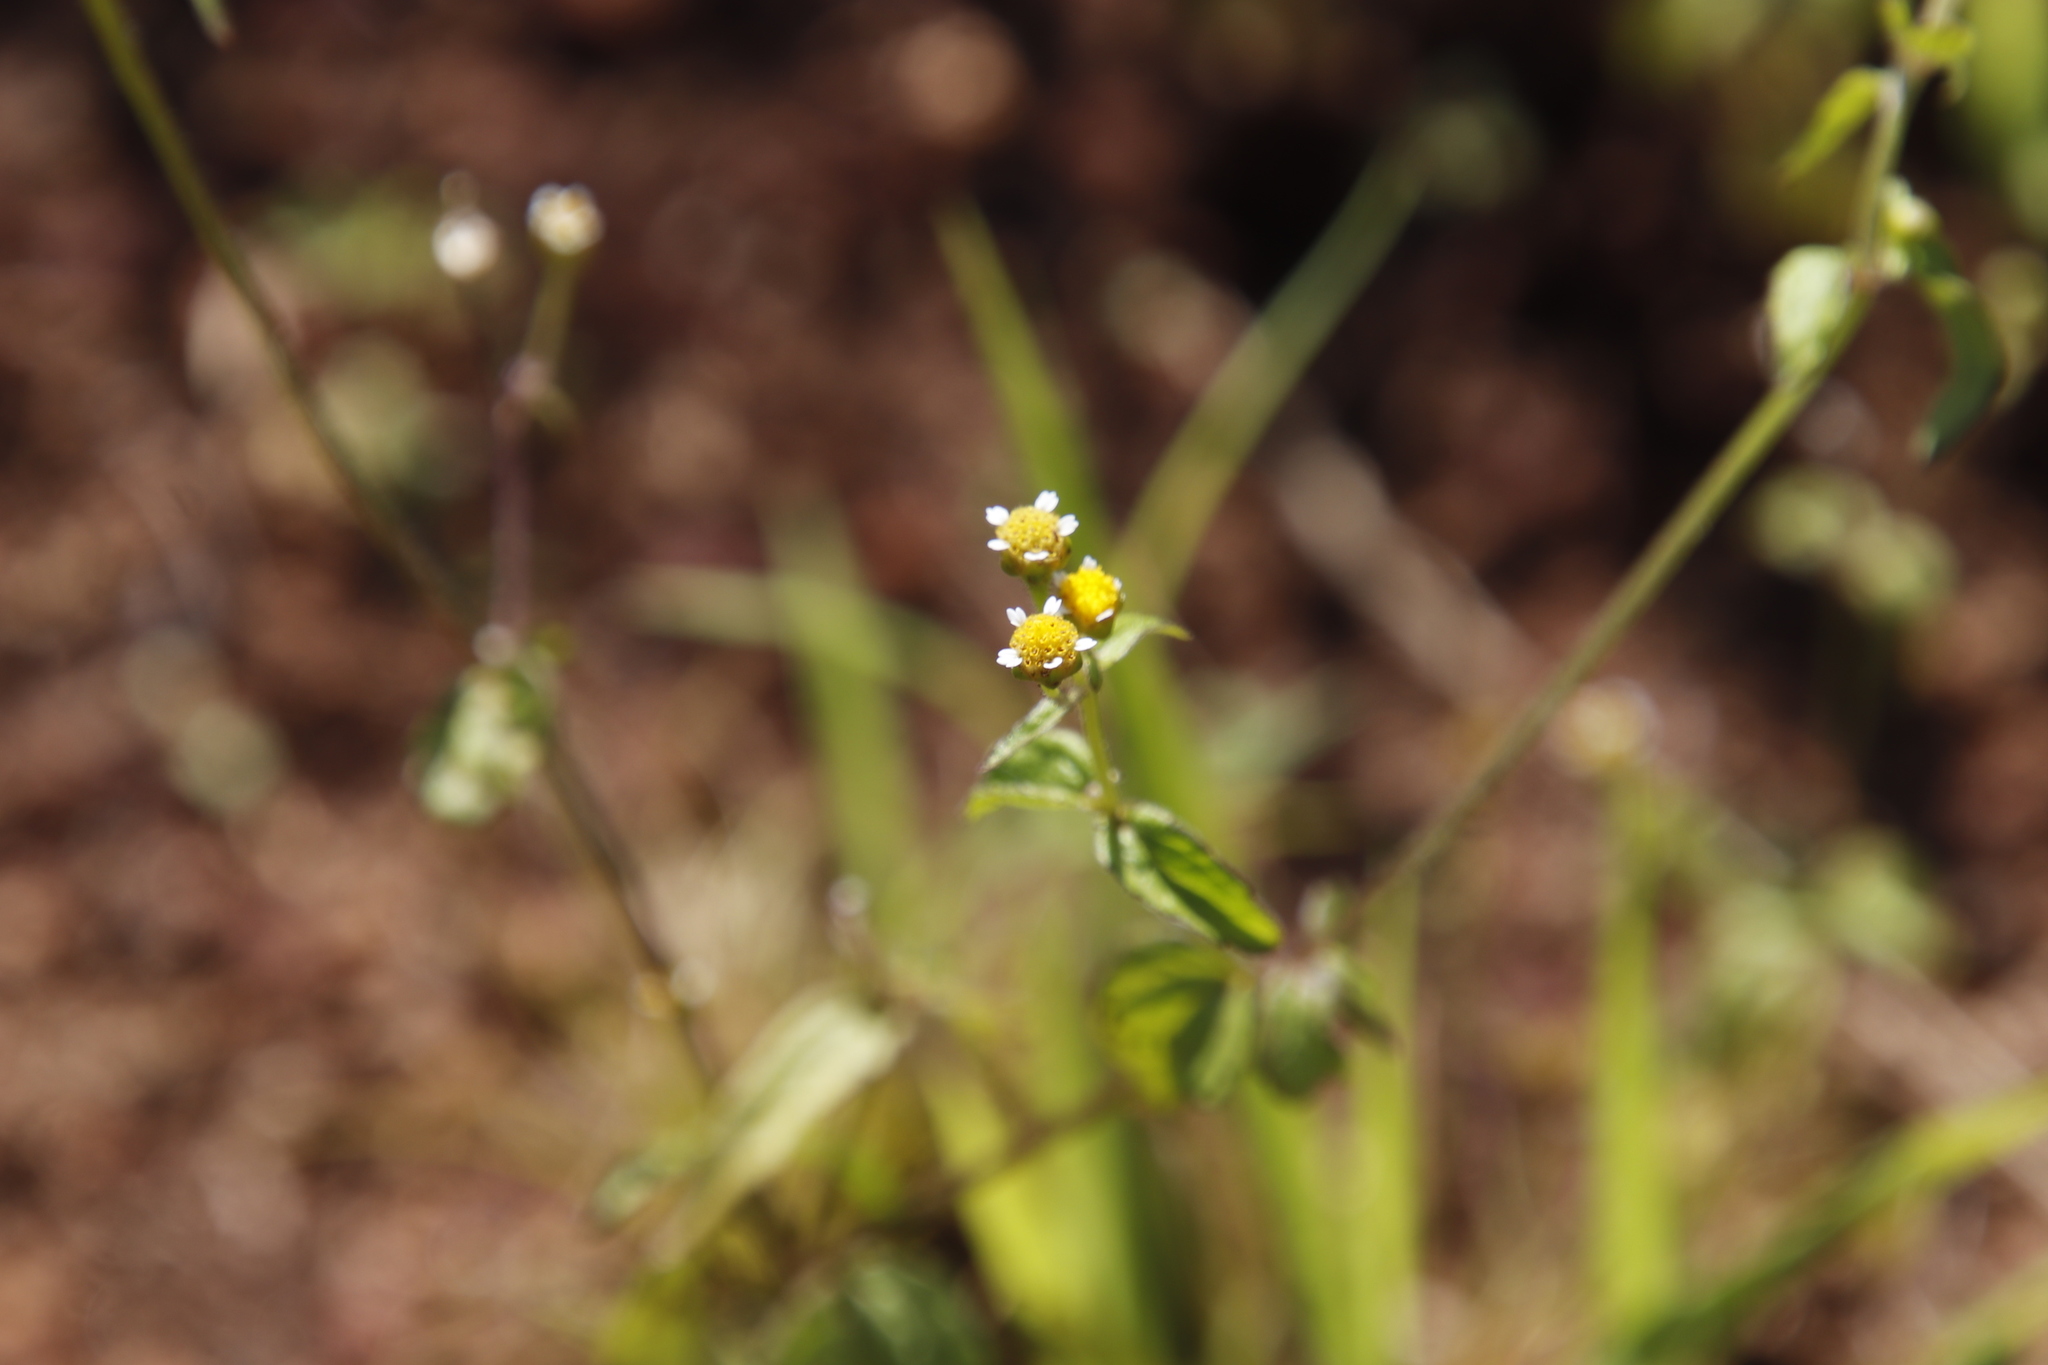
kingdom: Plantae
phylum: Tracheophyta
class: Magnoliopsida
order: Asterales
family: Asteraceae
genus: Galinsoga
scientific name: Galinsoga parviflora
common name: Gallant soldier
